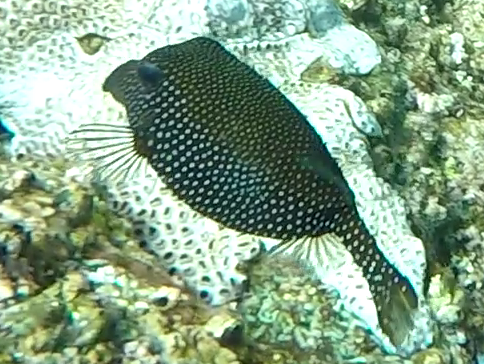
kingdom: Animalia
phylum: Chordata
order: Tetraodontiformes
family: Ostraciidae
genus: Ostracion
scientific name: Ostracion meleagris
